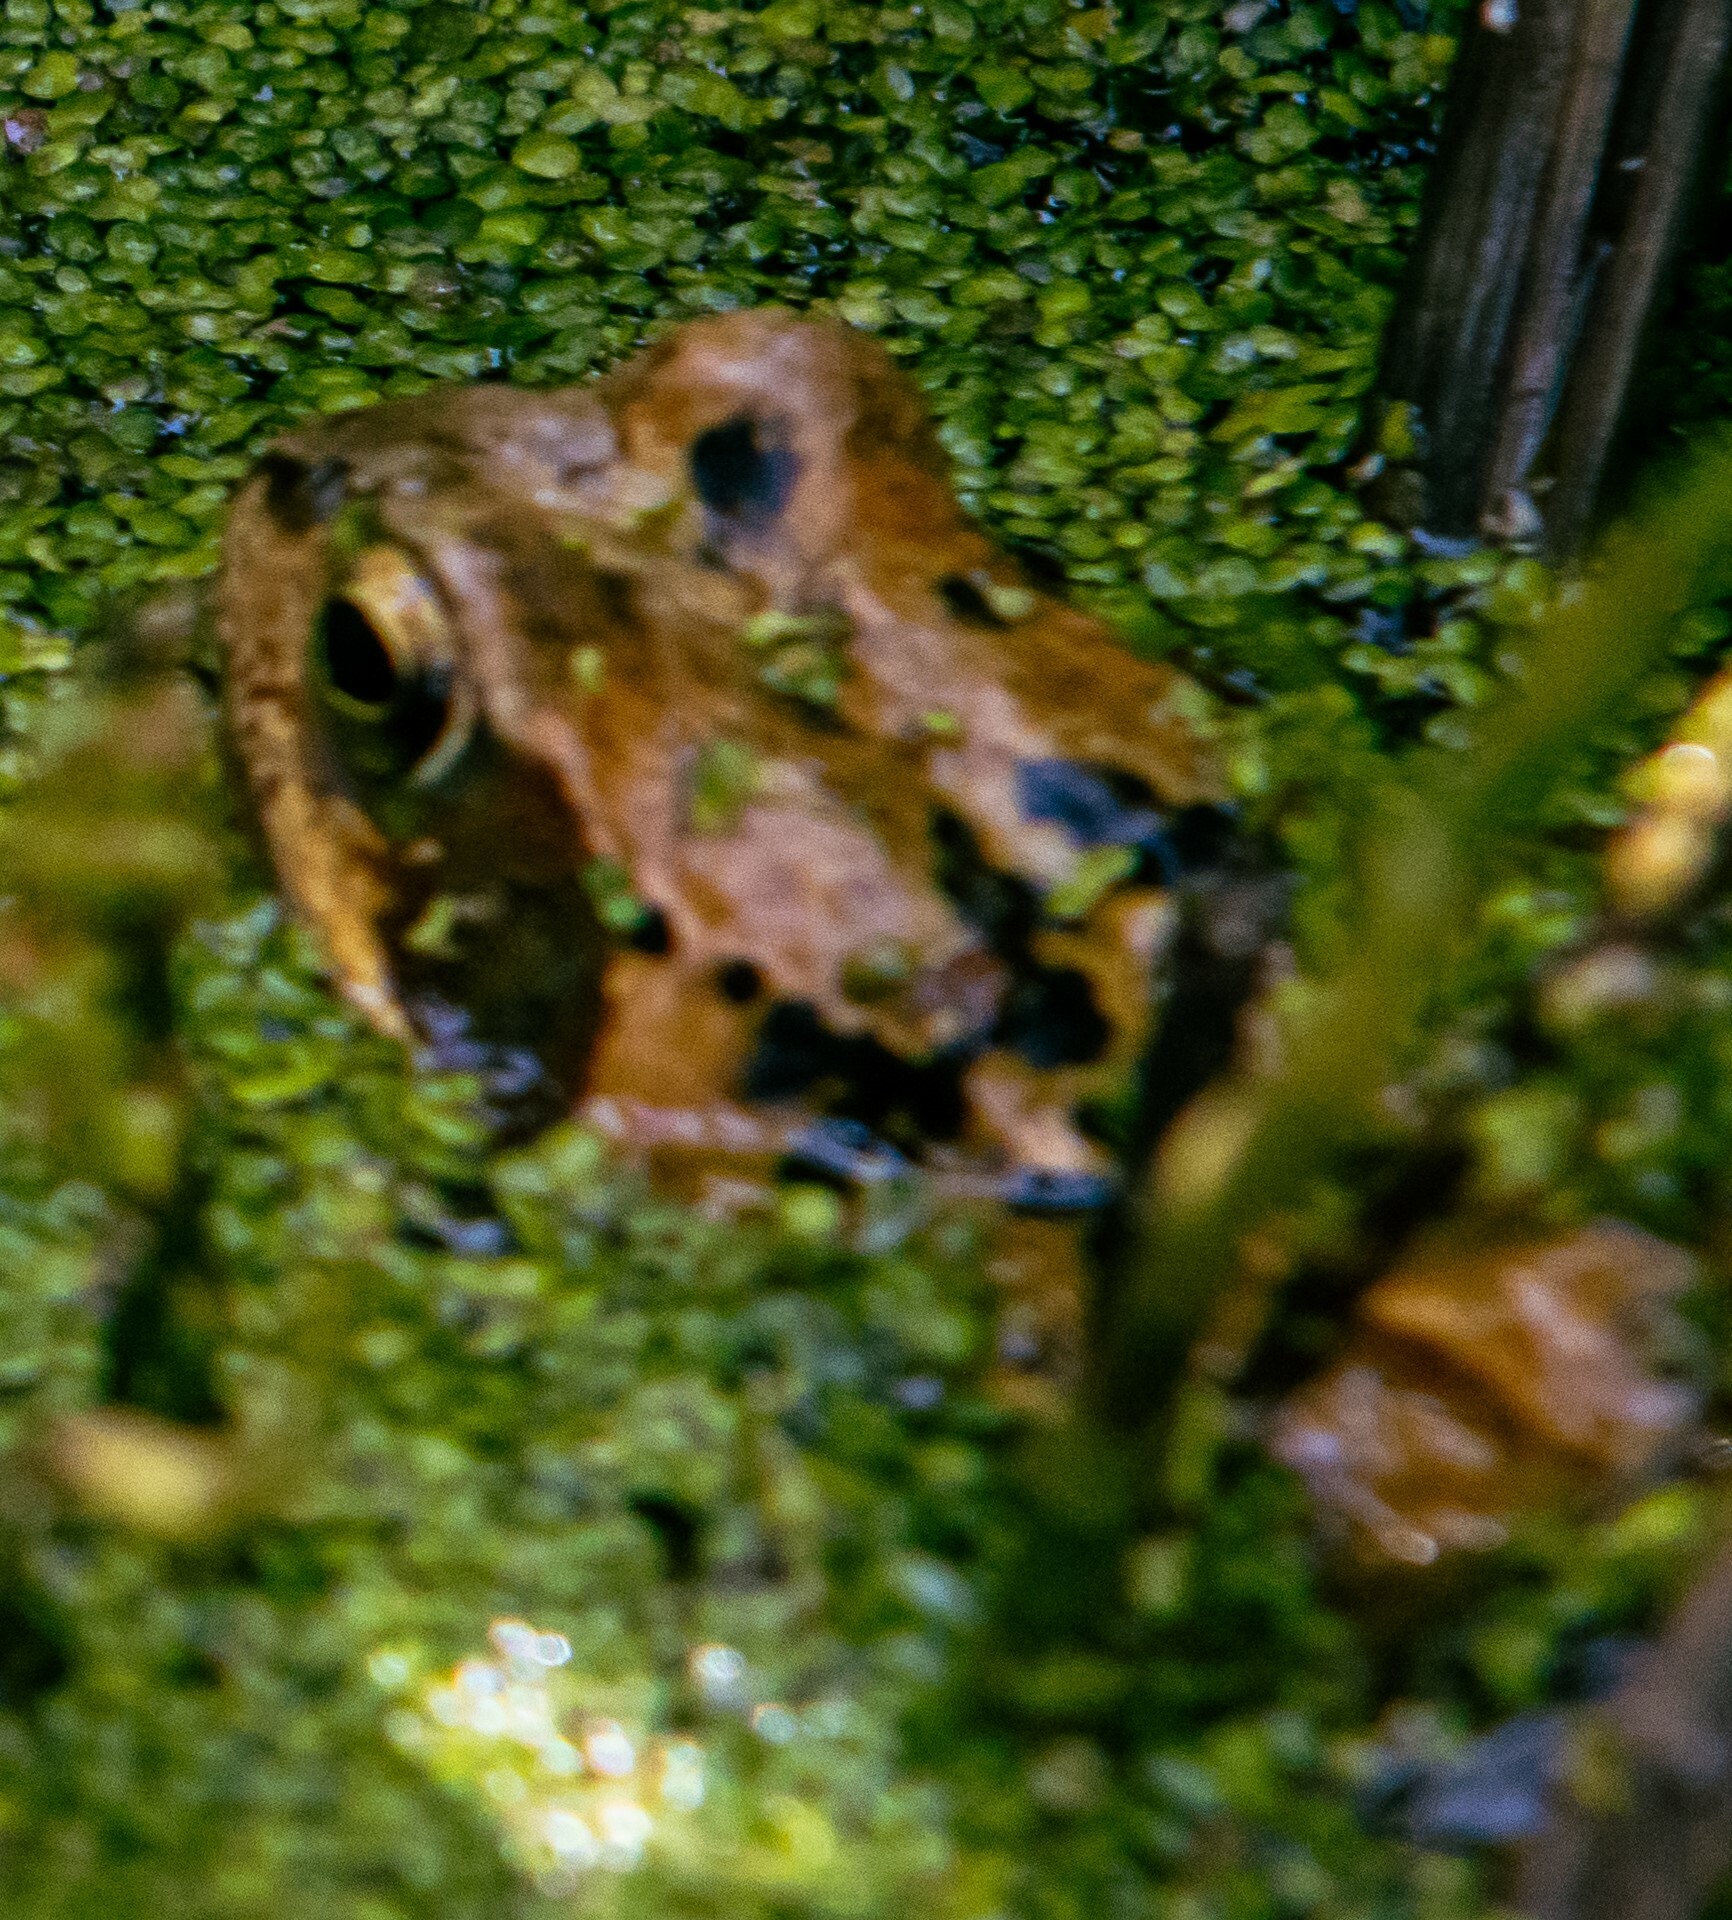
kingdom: Animalia
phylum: Chordata
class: Amphibia
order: Anura
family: Ranidae
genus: Rana
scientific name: Rana temporaria
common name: Common frog
